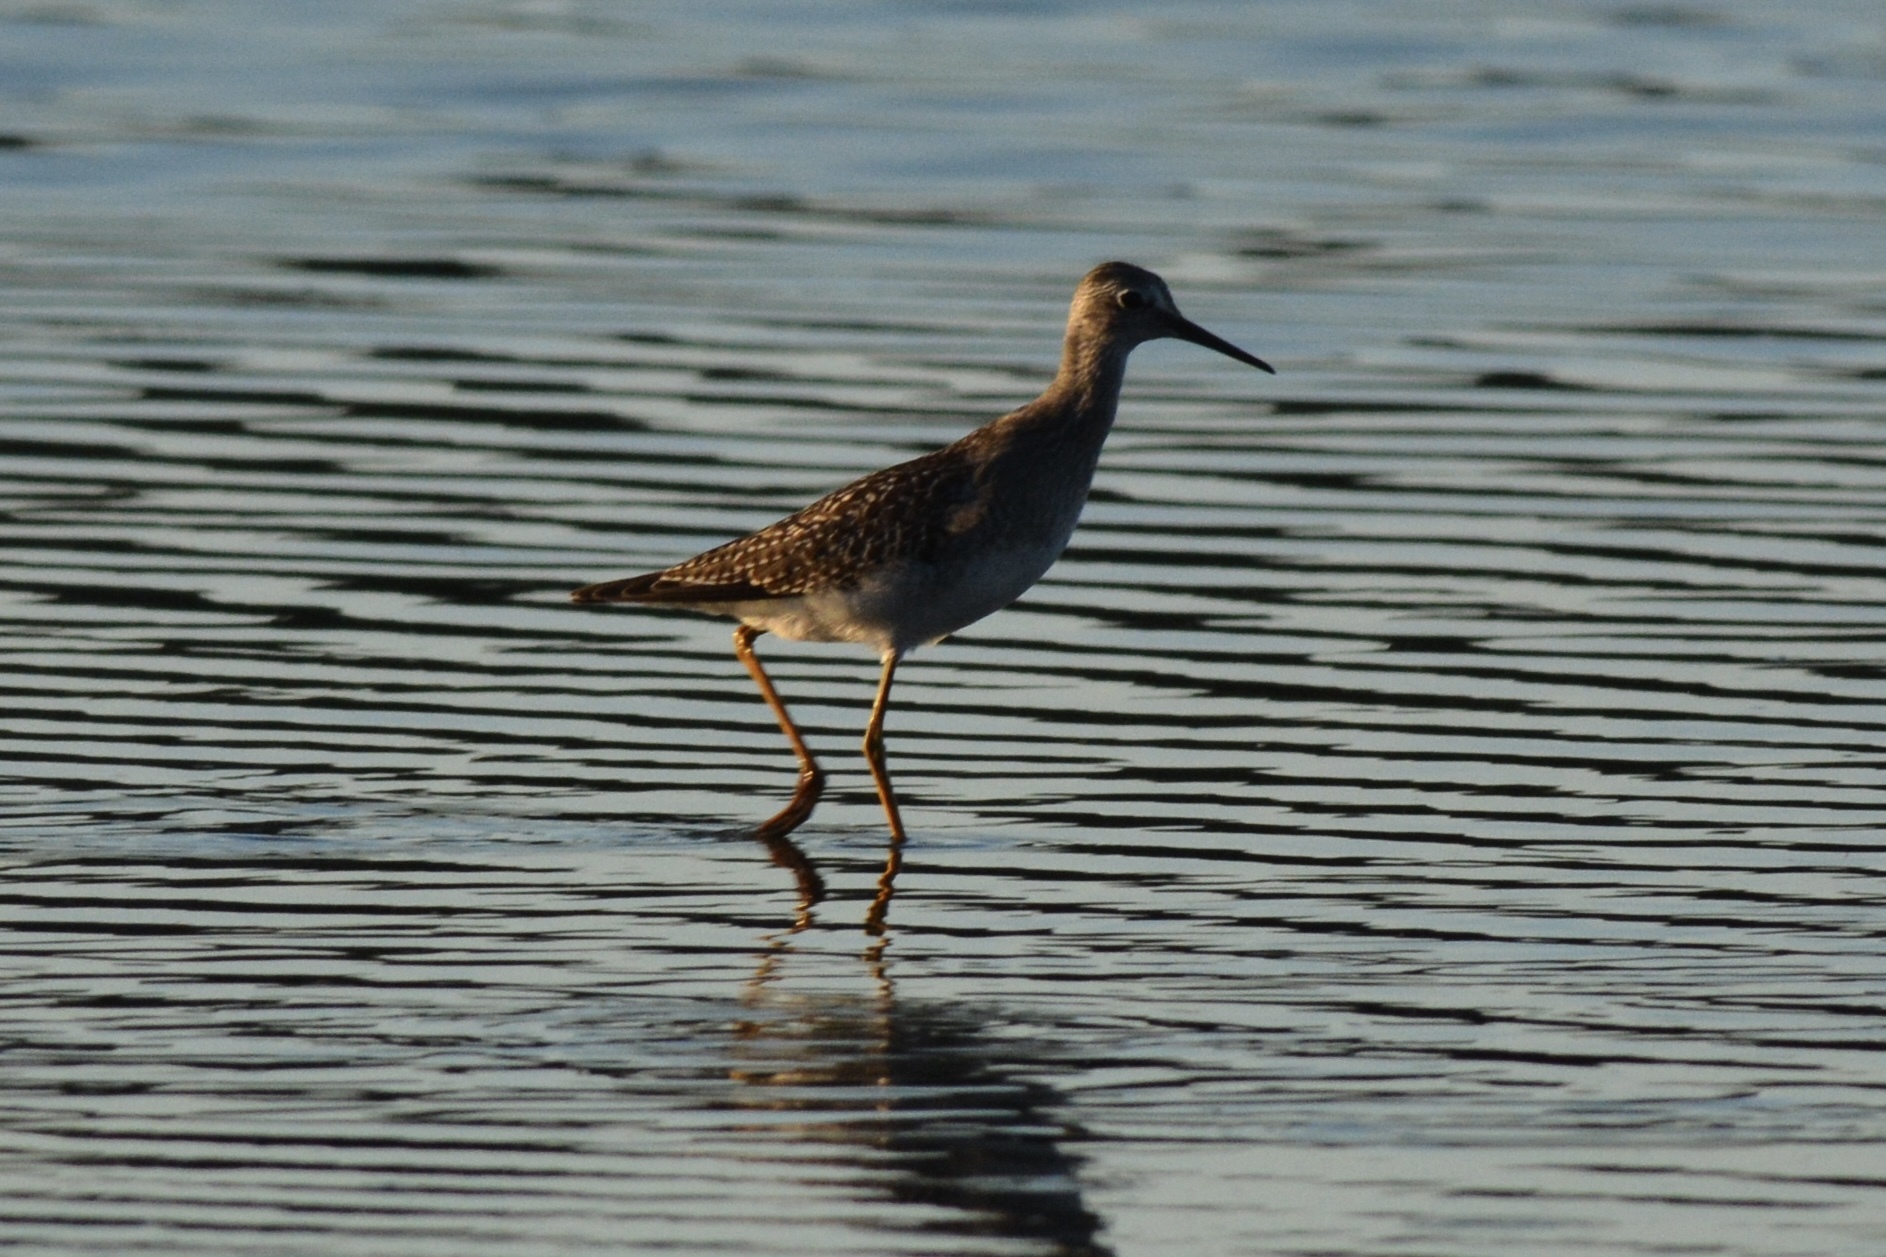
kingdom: Animalia
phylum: Chordata
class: Aves
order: Charadriiformes
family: Scolopacidae
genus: Tringa
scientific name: Tringa flavipes
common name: Lesser yellowlegs
